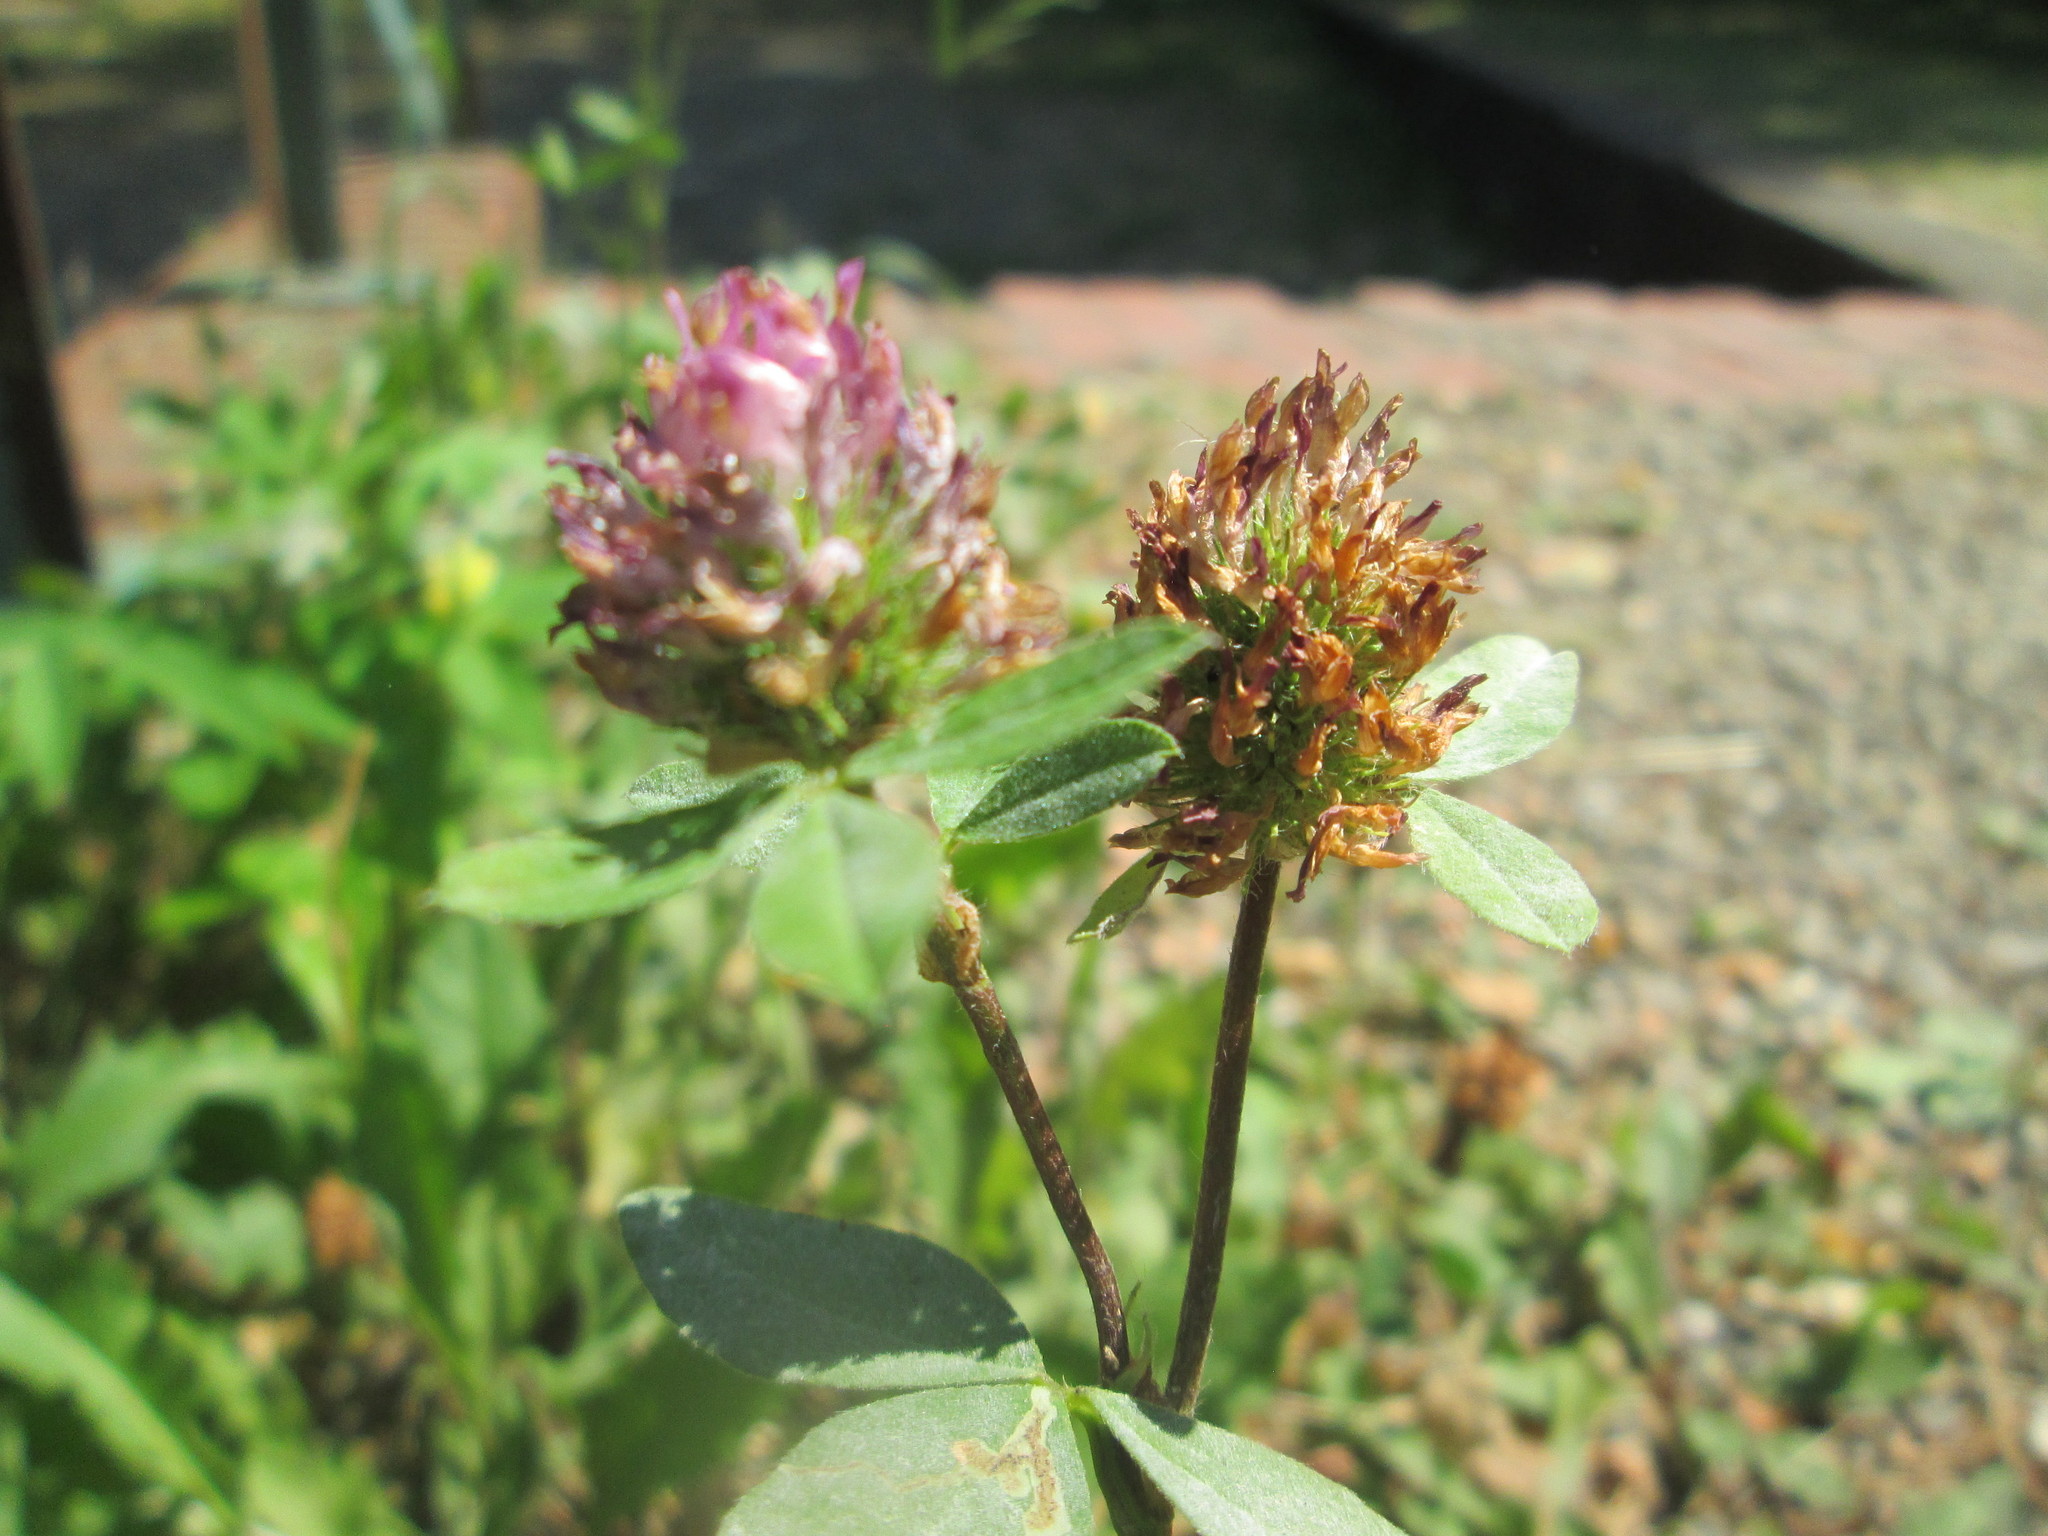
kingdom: Plantae
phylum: Tracheophyta
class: Magnoliopsida
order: Fabales
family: Fabaceae
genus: Trifolium
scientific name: Trifolium pratense
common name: Red clover
